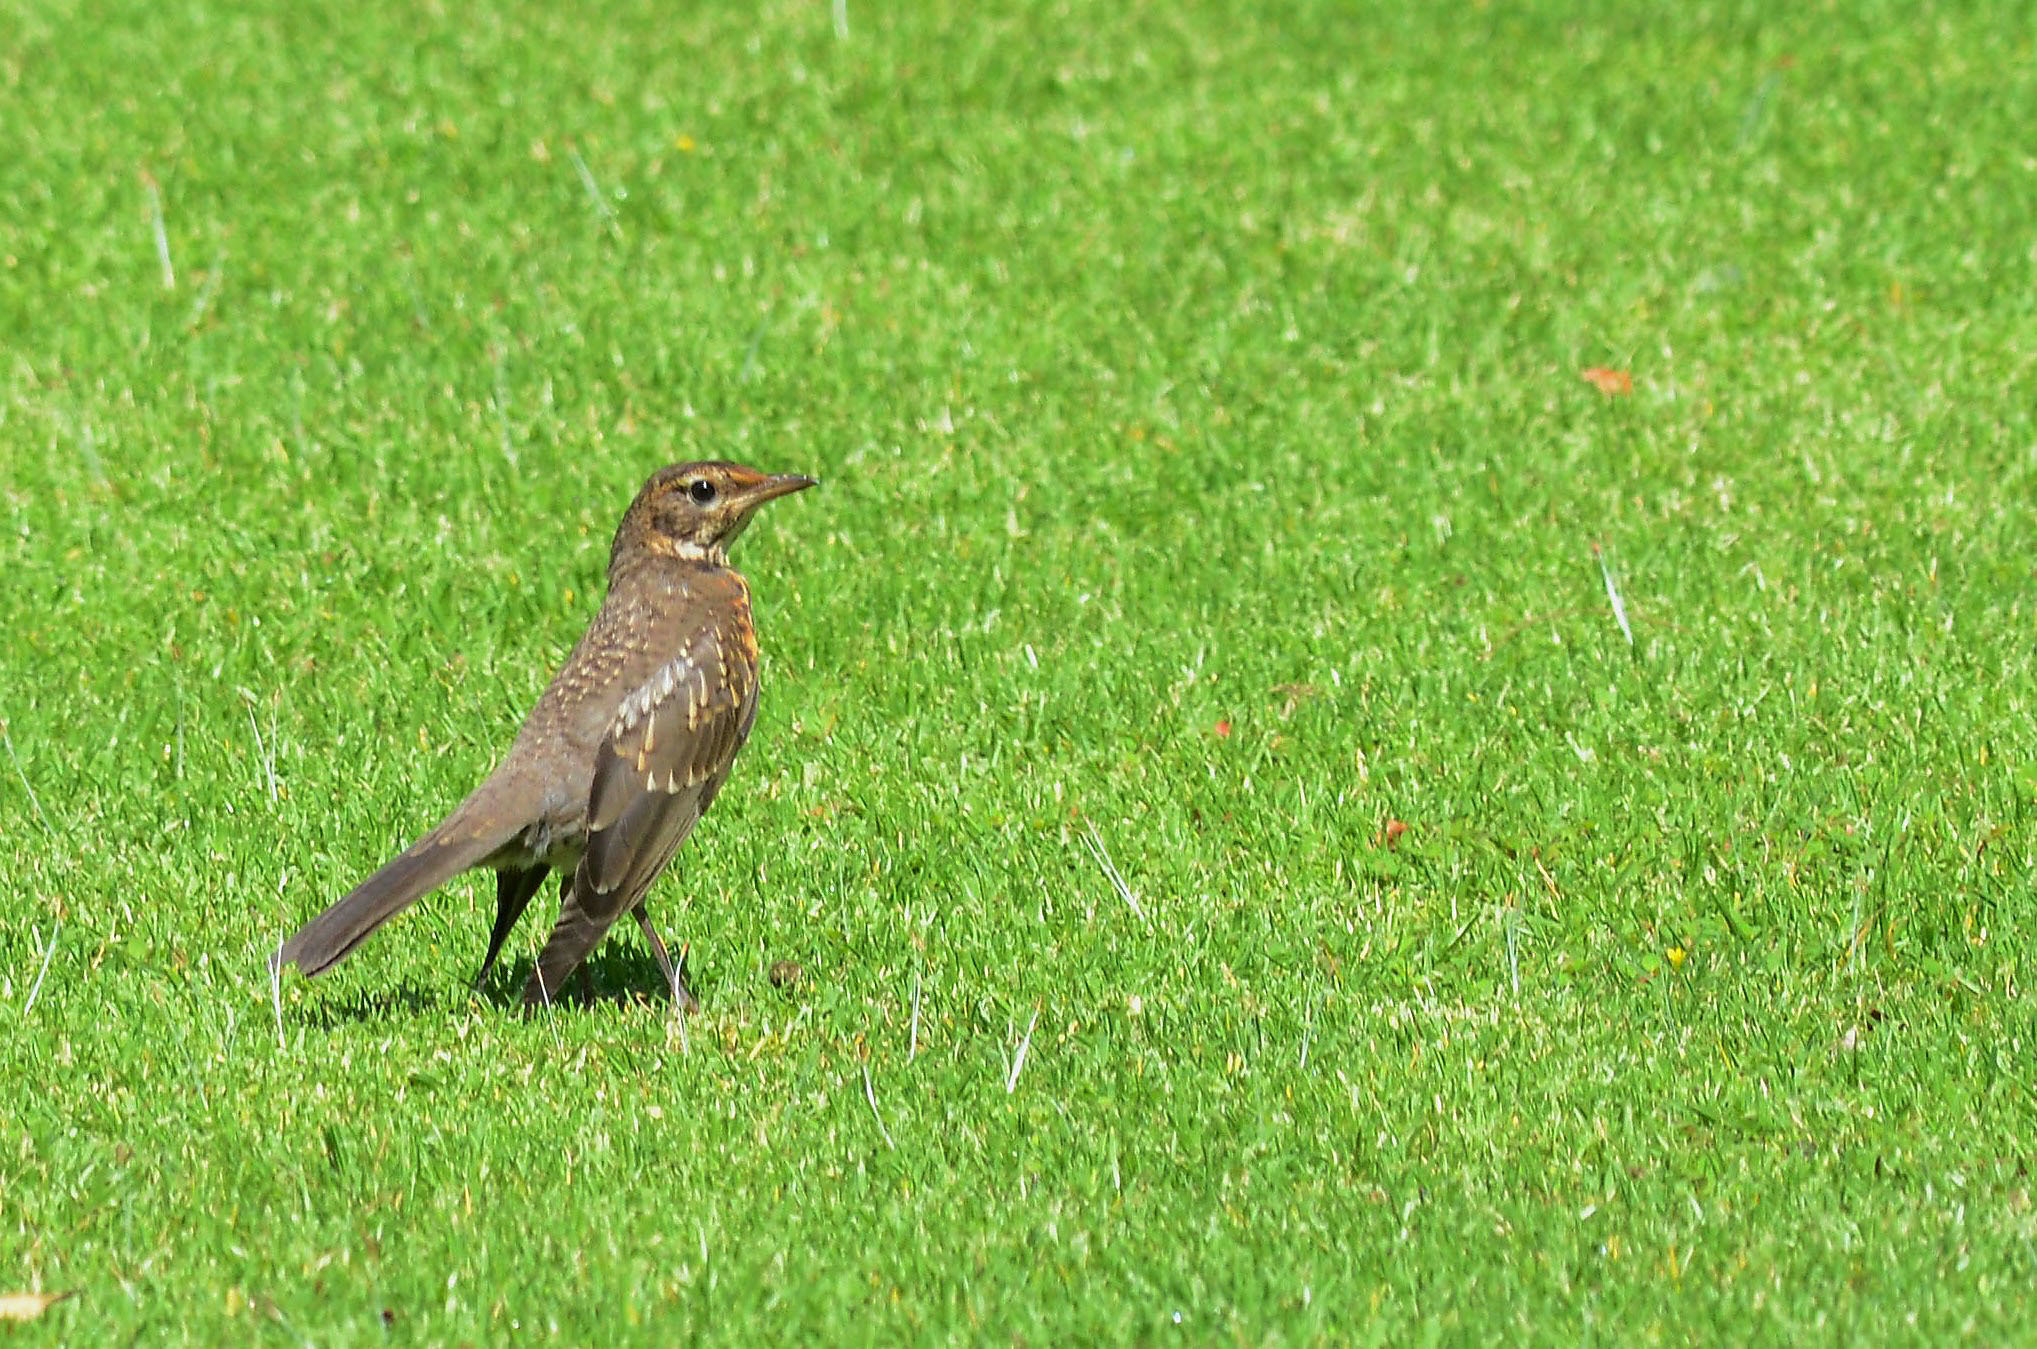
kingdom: Animalia
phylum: Chordata
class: Aves
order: Passeriformes
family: Turdidae
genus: Turdus
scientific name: Turdus migratorius
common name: American robin
